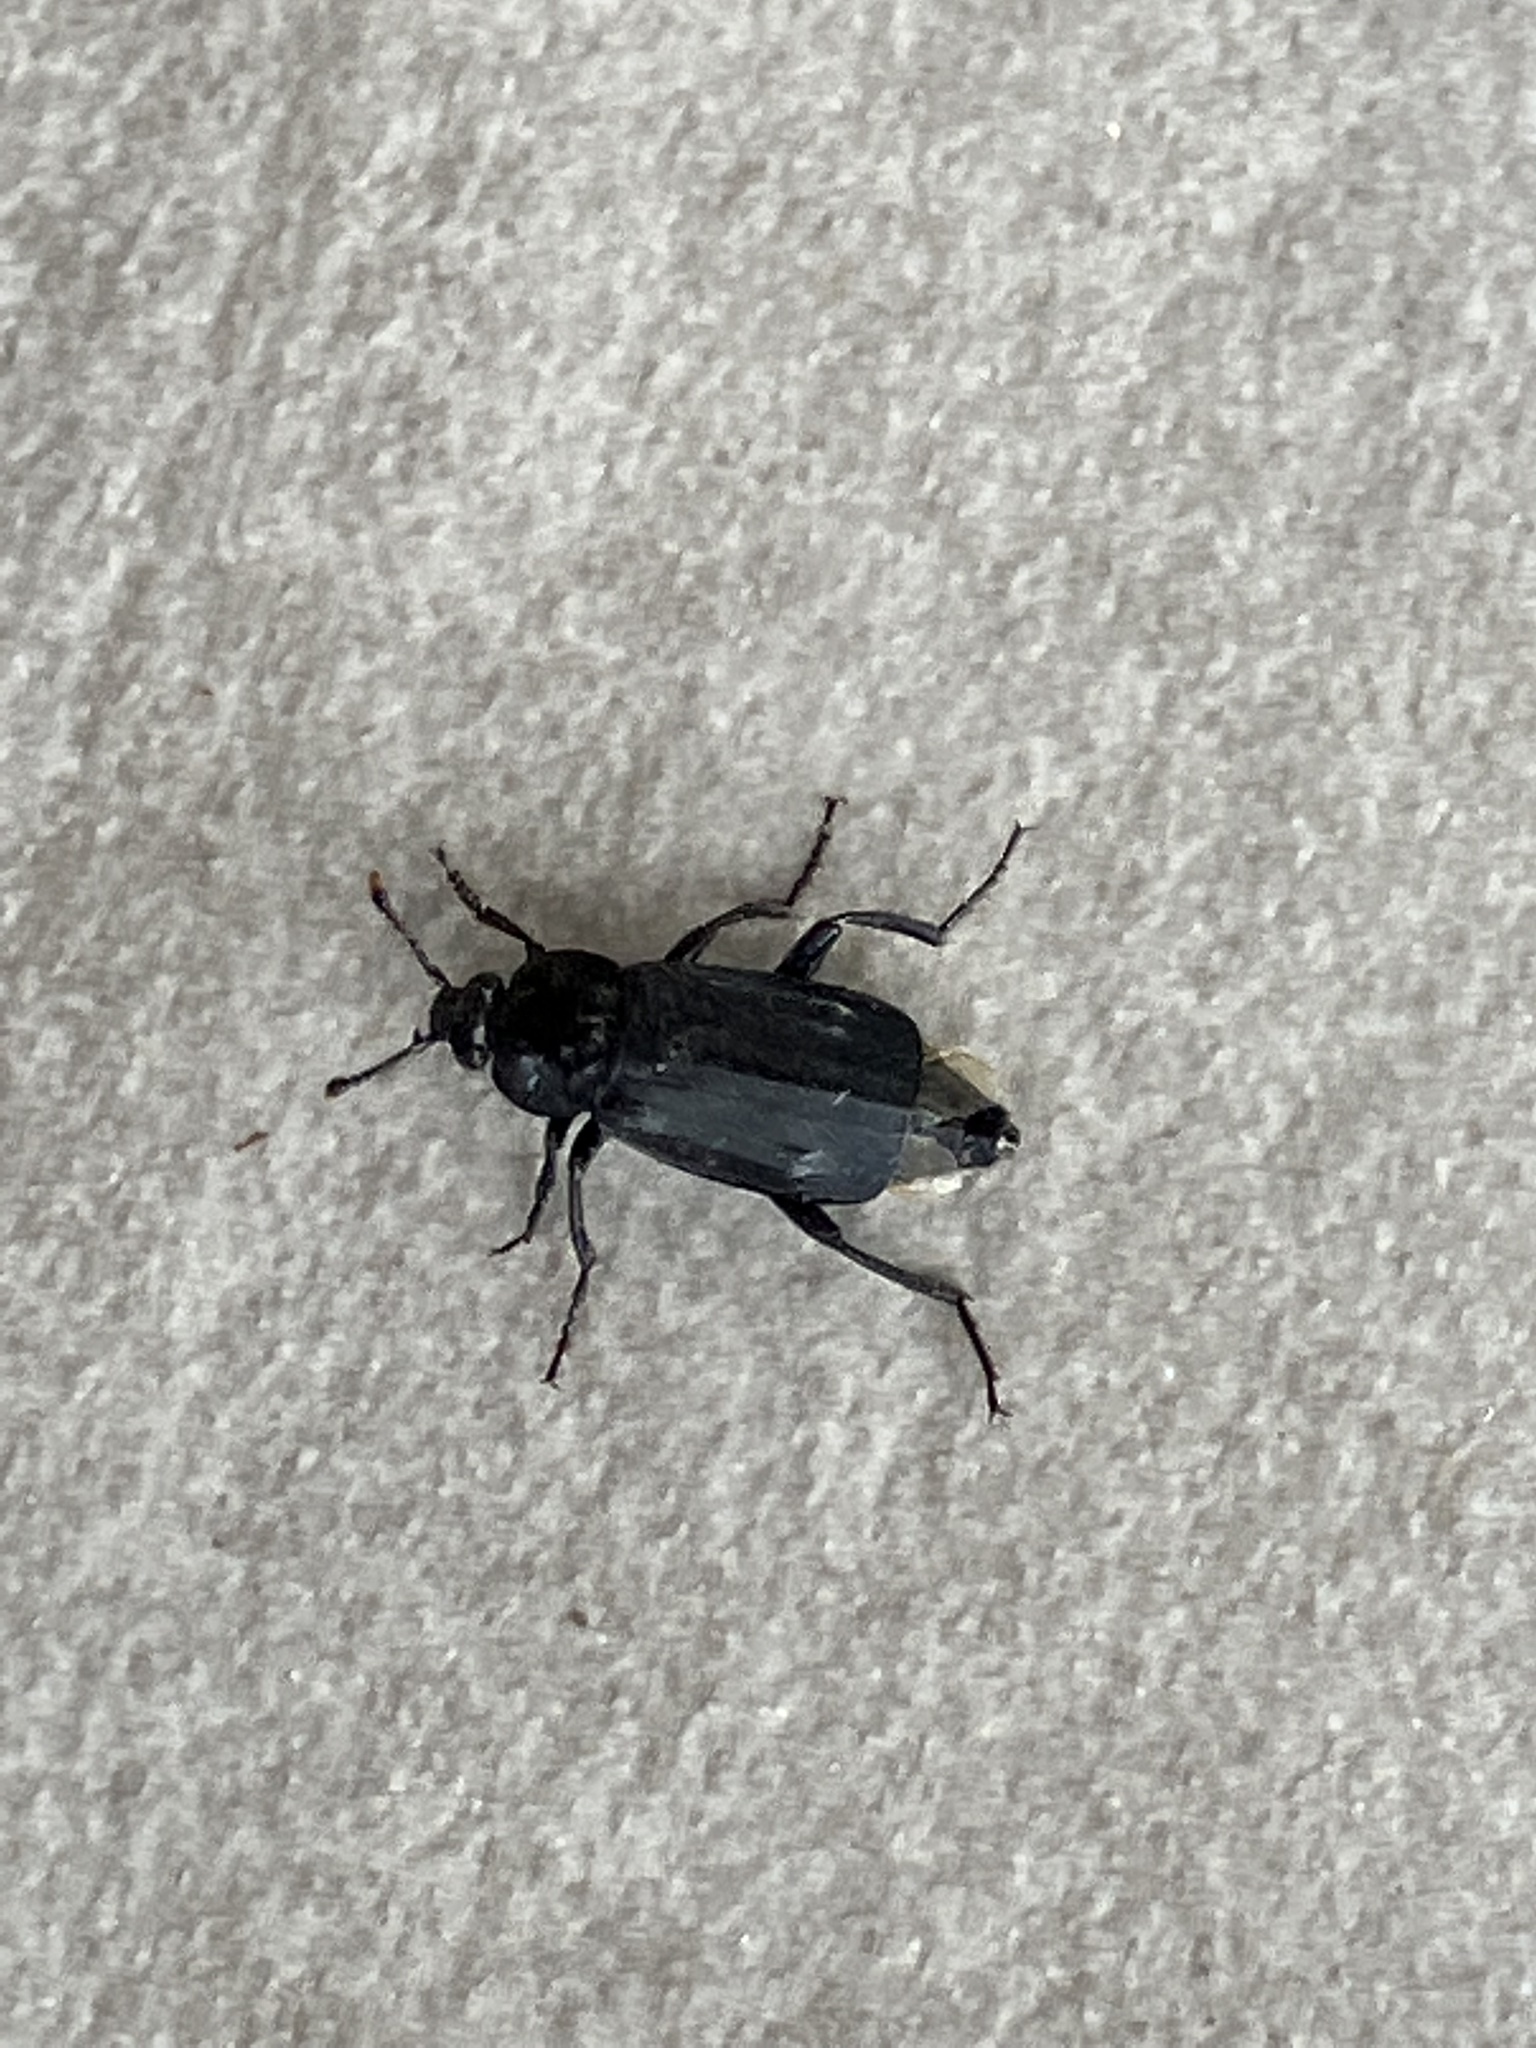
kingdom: Animalia
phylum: Arthropoda
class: Insecta
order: Coleoptera
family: Staphylinidae
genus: Necrodes
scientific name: Necrodes littoralis
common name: Shore sexton beetle
